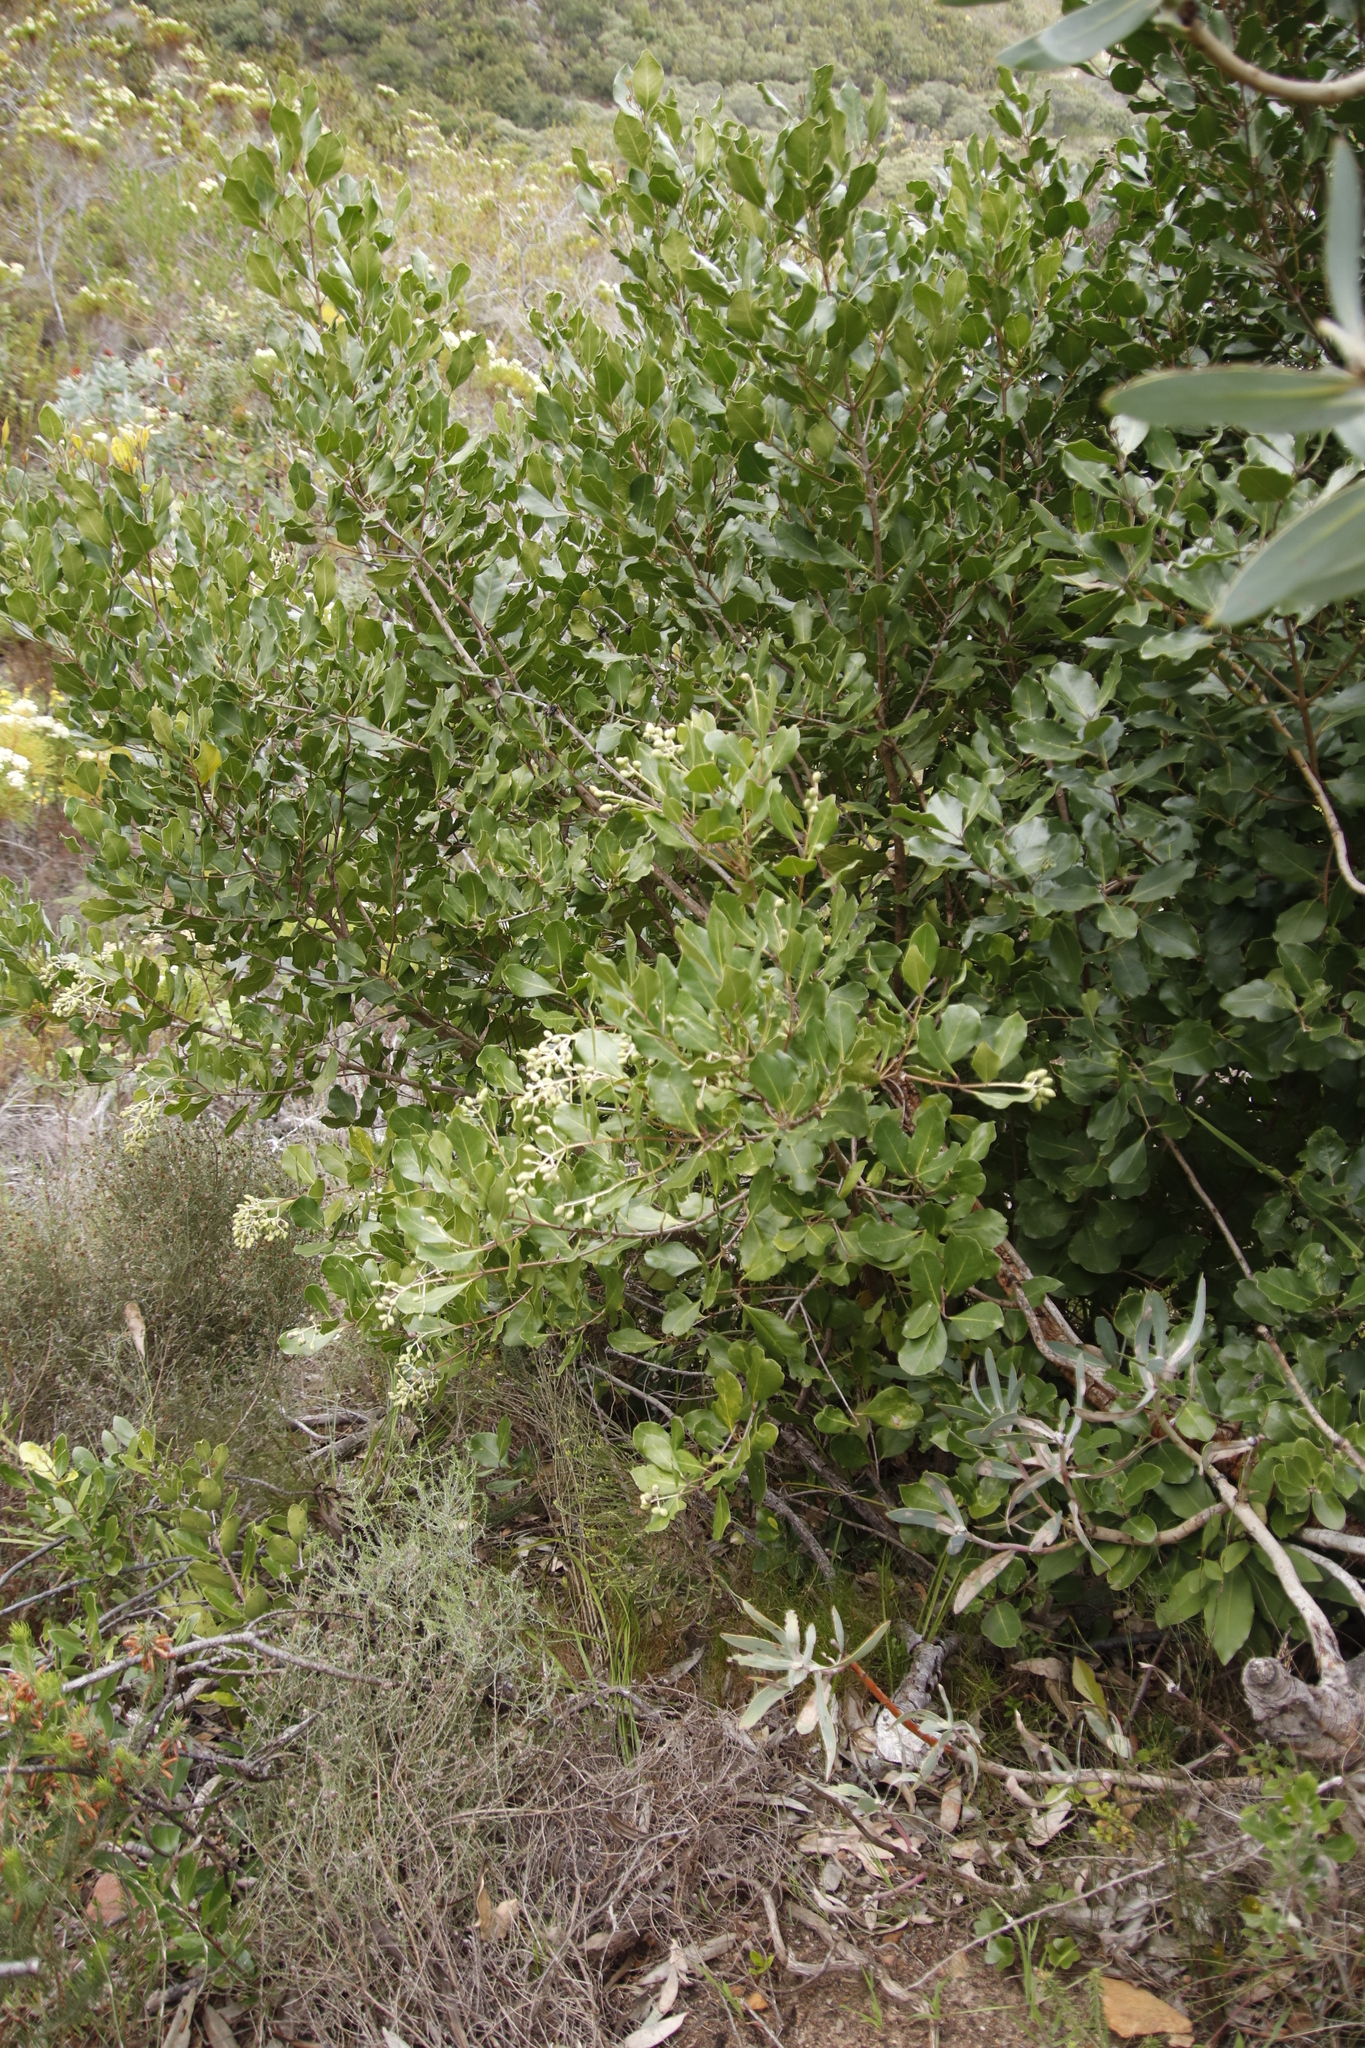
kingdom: Plantae
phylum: Tracheophyta
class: Magnoliopsida
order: Lamiales
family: Oleaceae
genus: Olea
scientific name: Olea capensis
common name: Black ironwood
